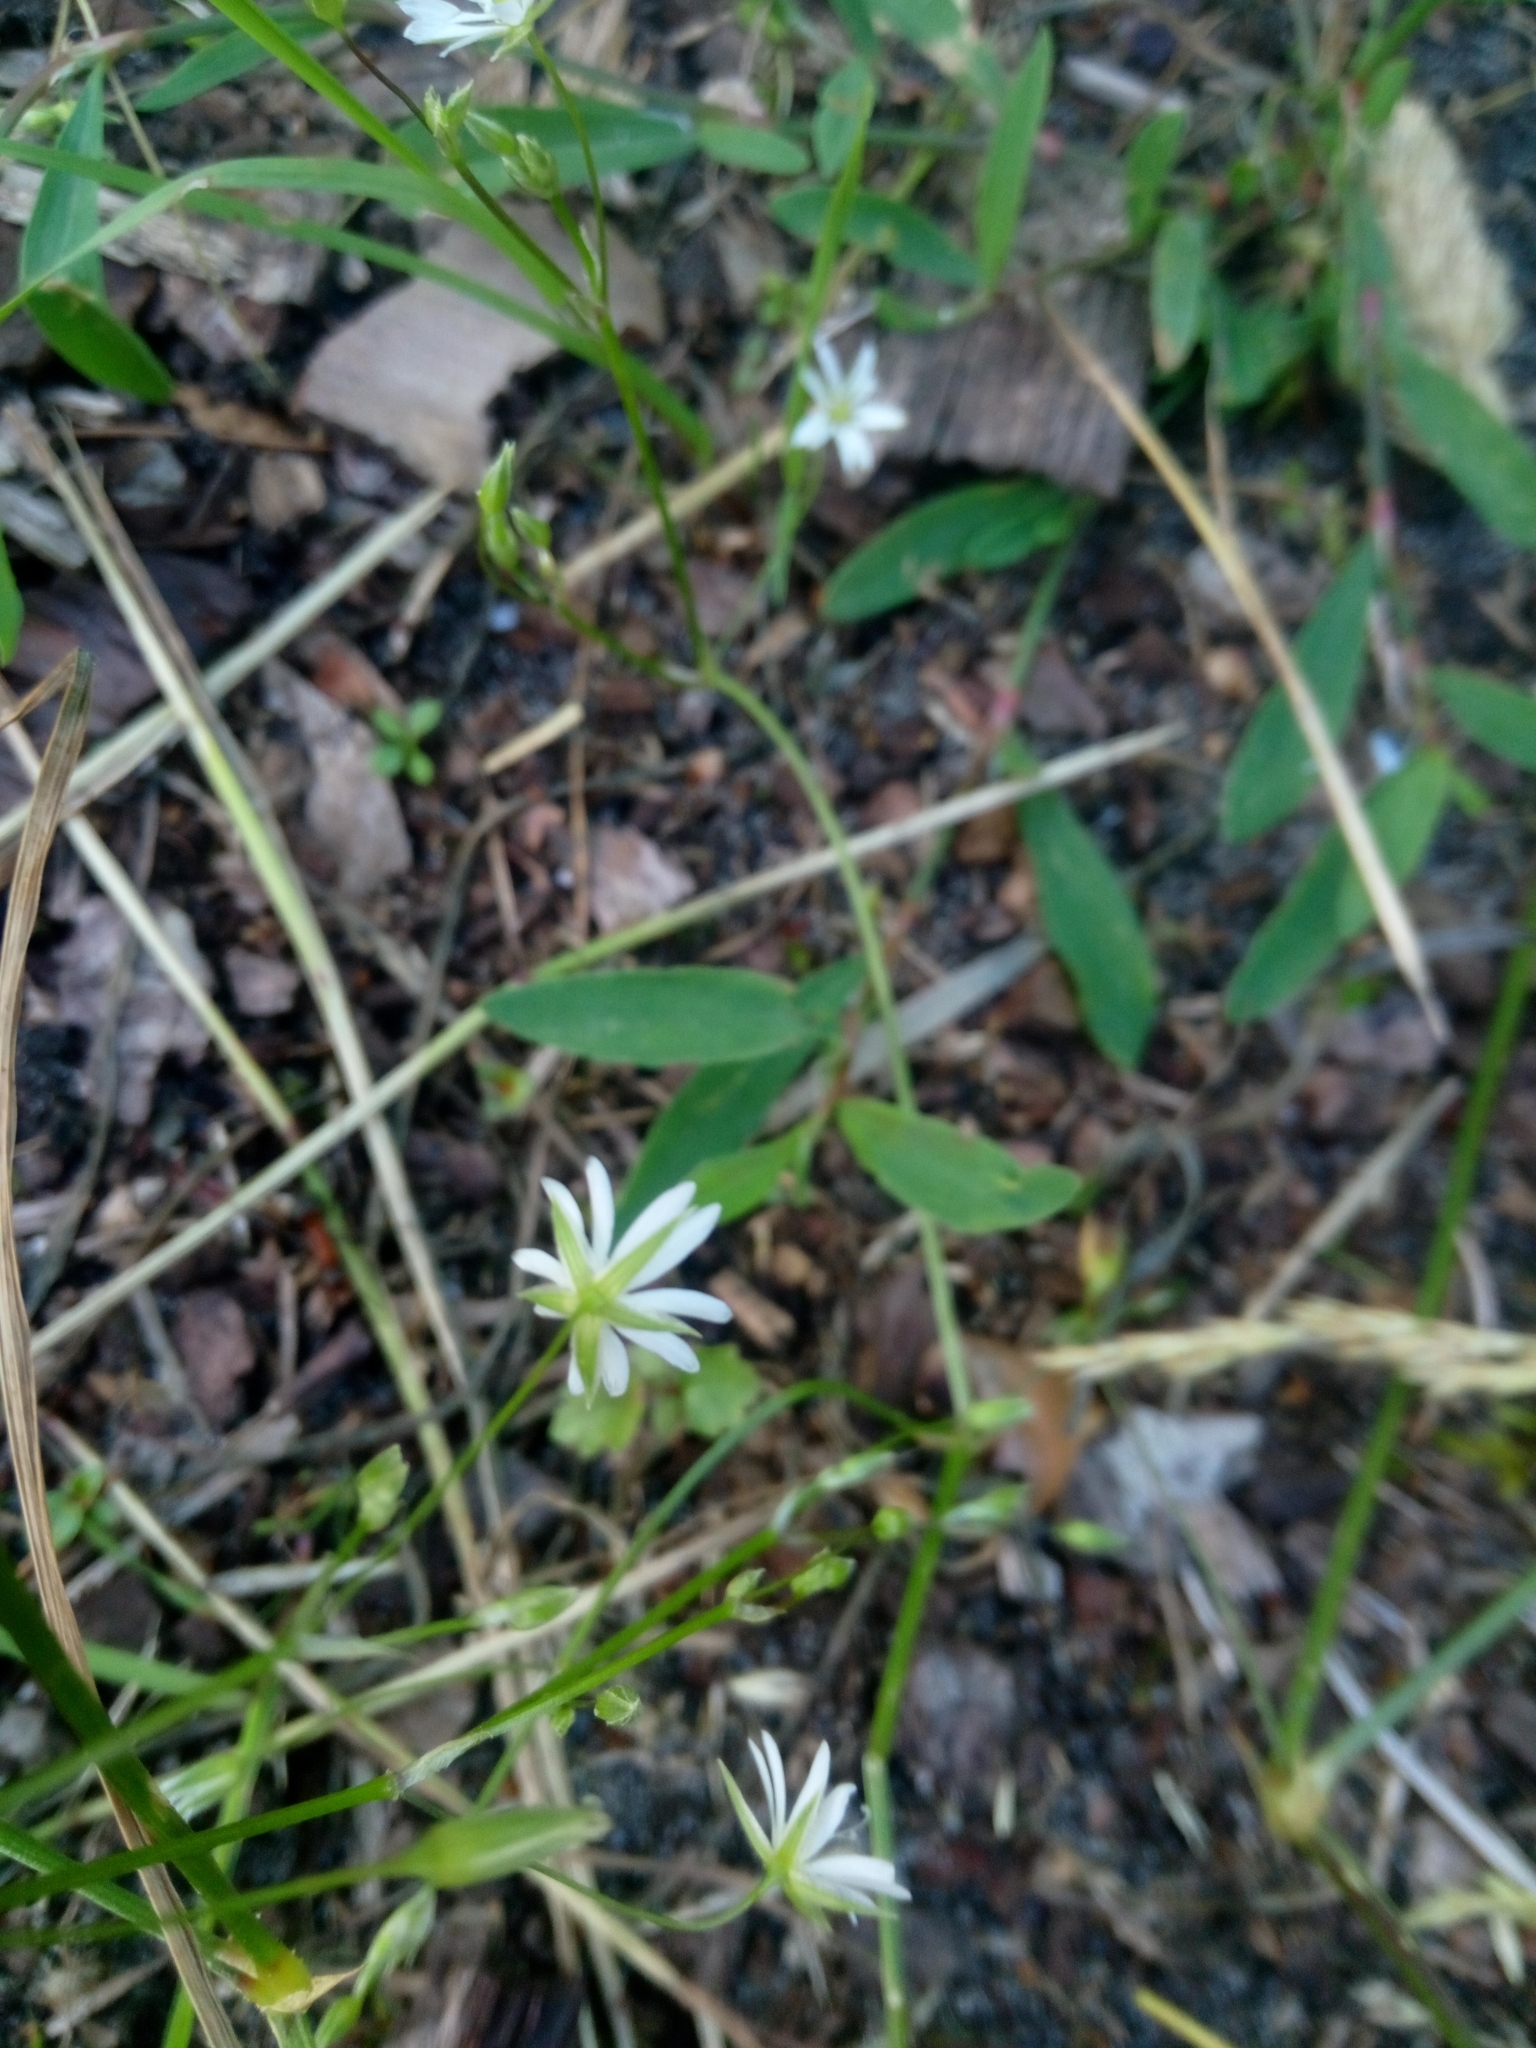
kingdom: Plantae
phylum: Tracheophyta
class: Magnoliopsida
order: Caryophyllales
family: Caryophyllaceae
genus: Stellaria
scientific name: Stellaria graminea
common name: Grass-like starwort
